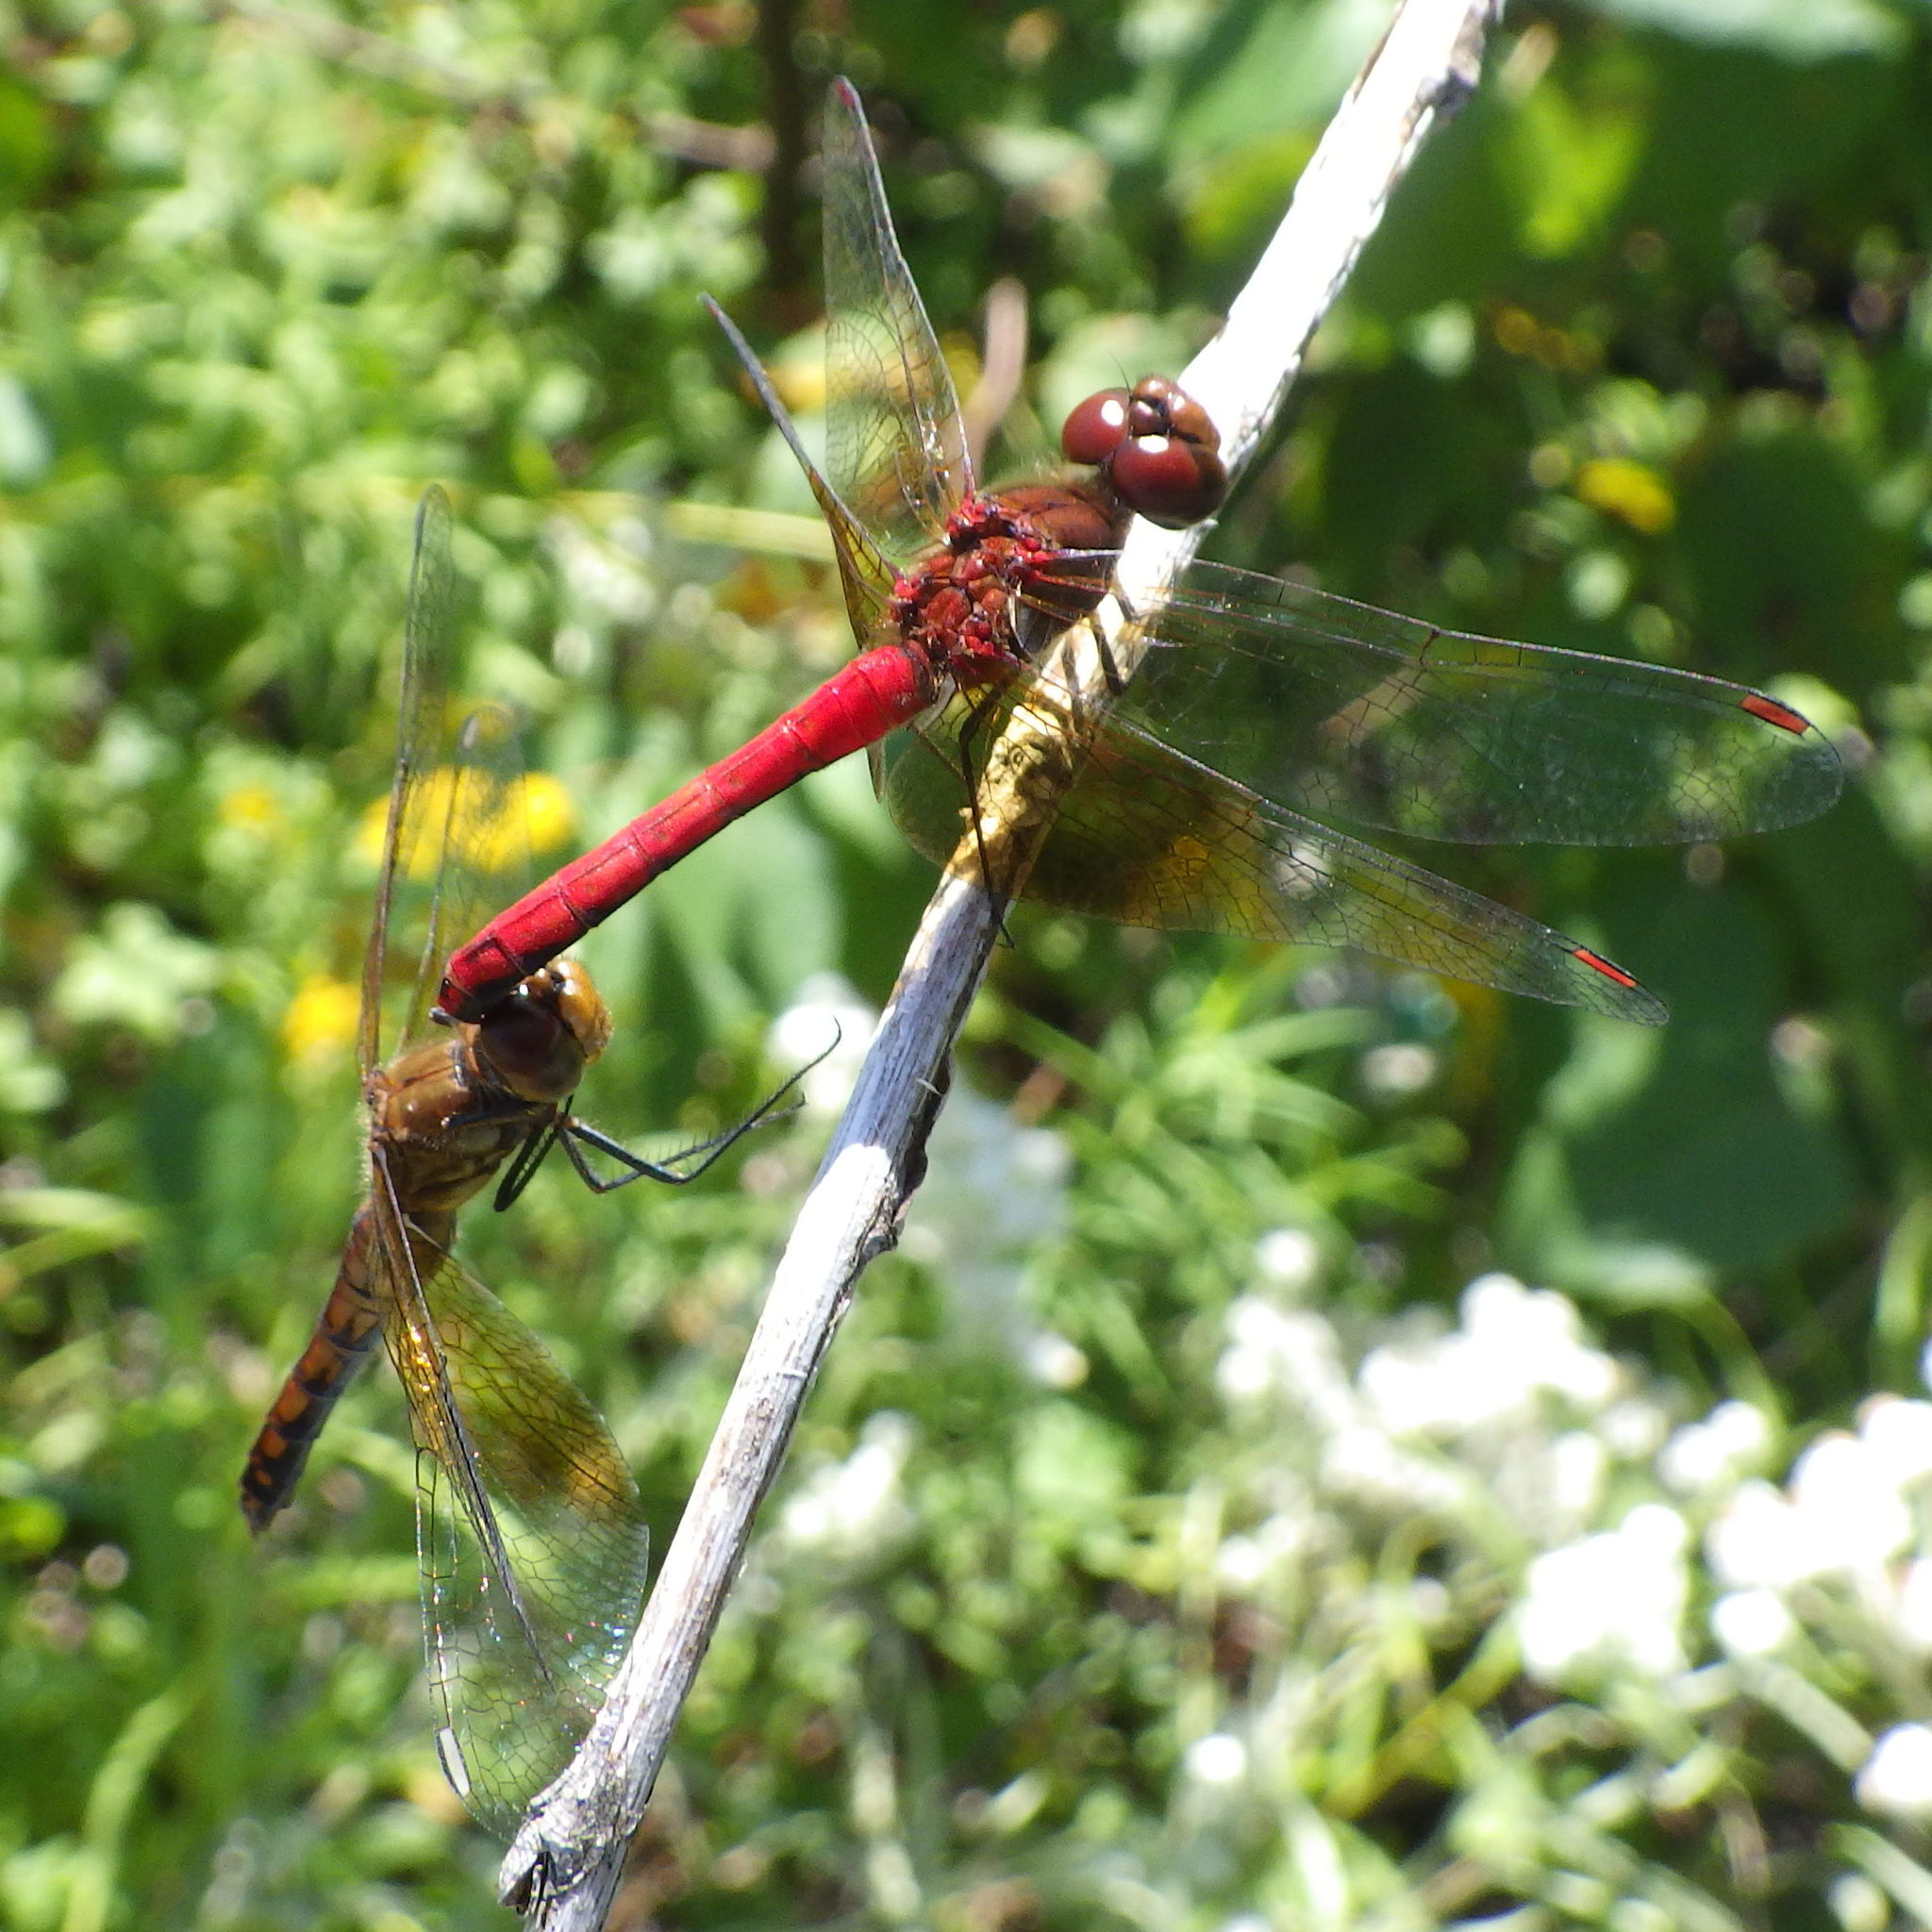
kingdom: Animalia
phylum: Arthropoda
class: Insecta
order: Odonata
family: Libellulidae
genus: Sympetrum
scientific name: Sympetrum semicinctum
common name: Band-winged meadowhawk
